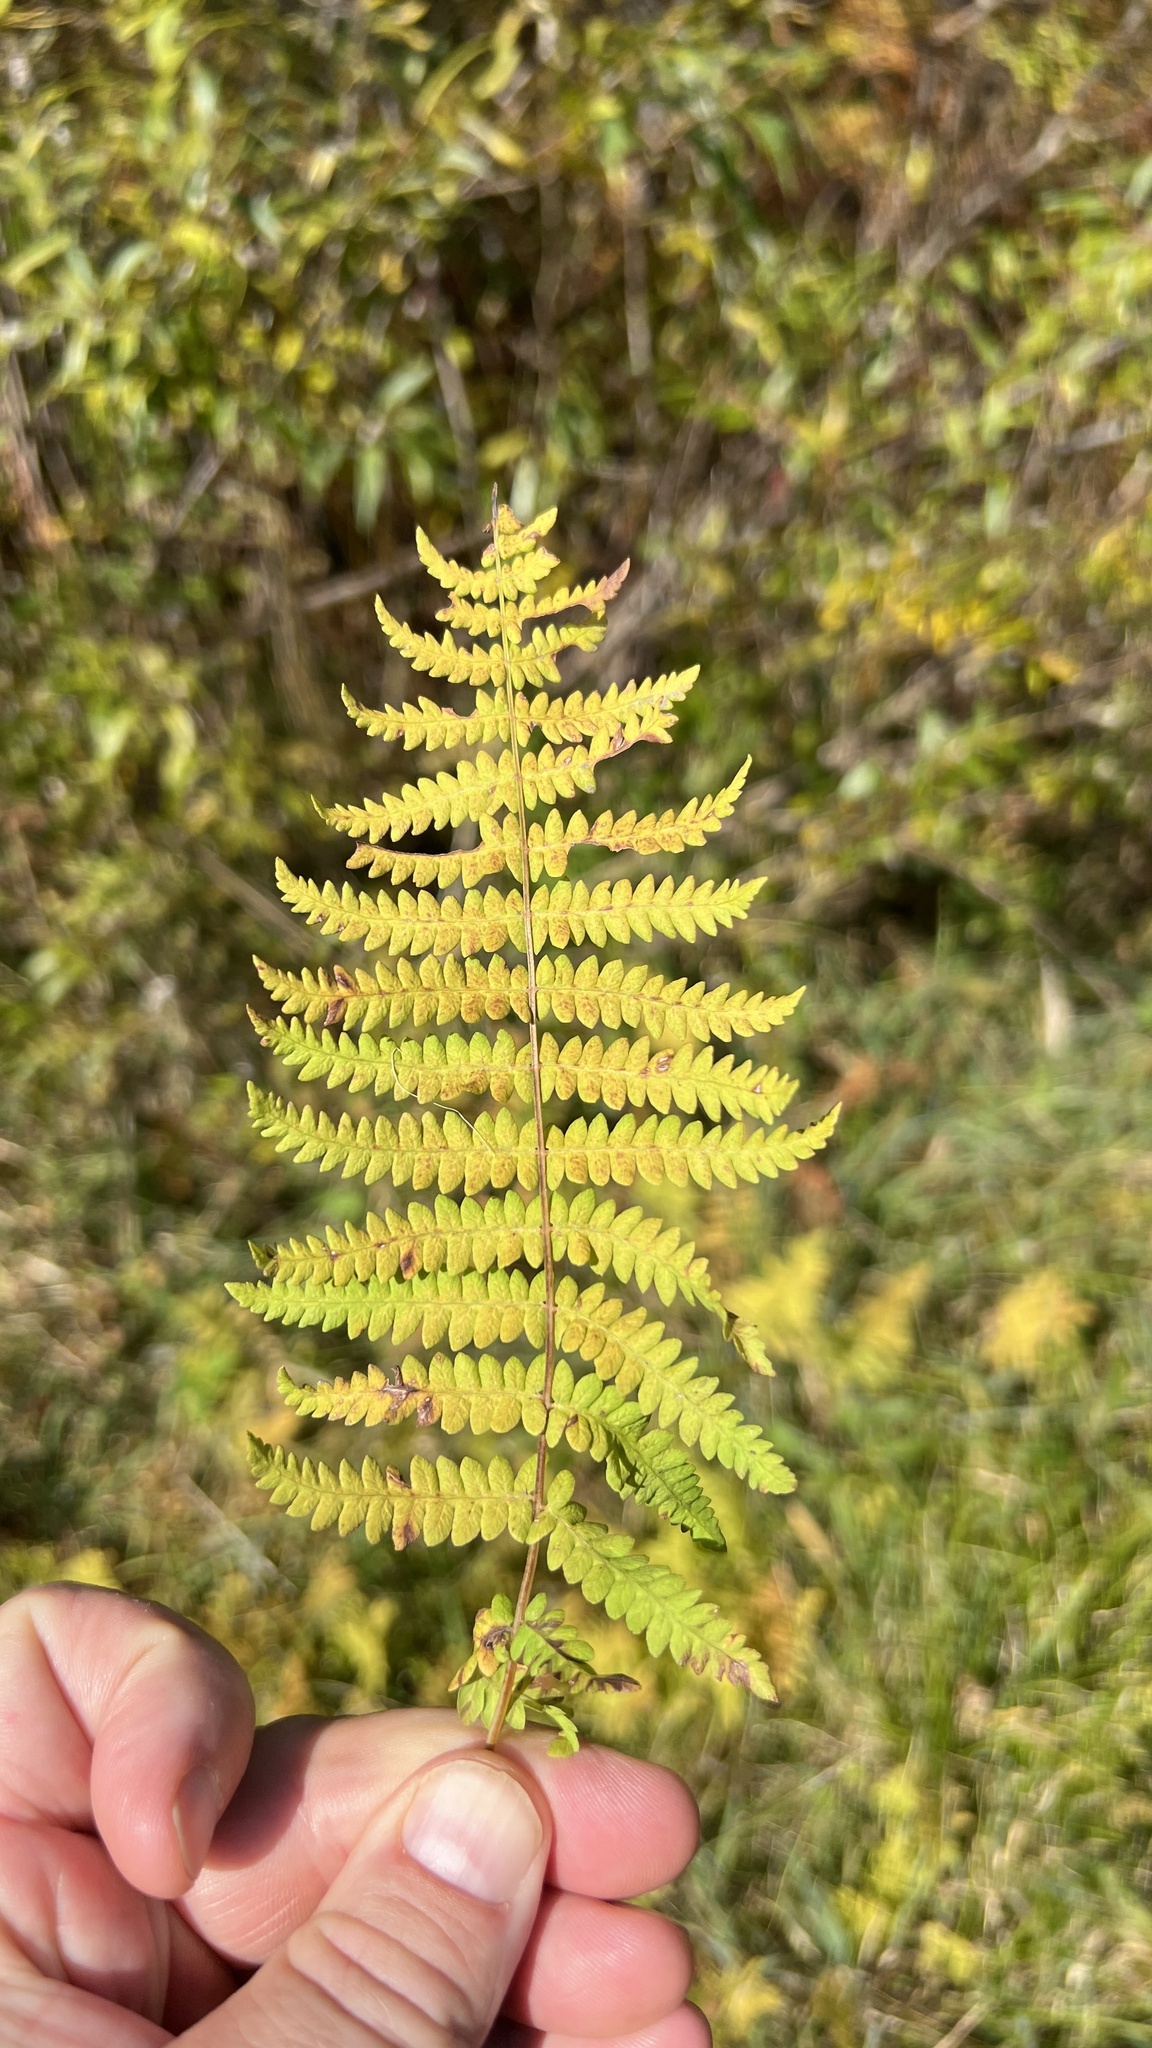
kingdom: Plantae
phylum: Tracheophyta
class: Polypodiopsida
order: Polypodiales
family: Thelypteridaceae
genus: Thelypteris
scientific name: Thelypteris palustris
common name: Marsh fern
